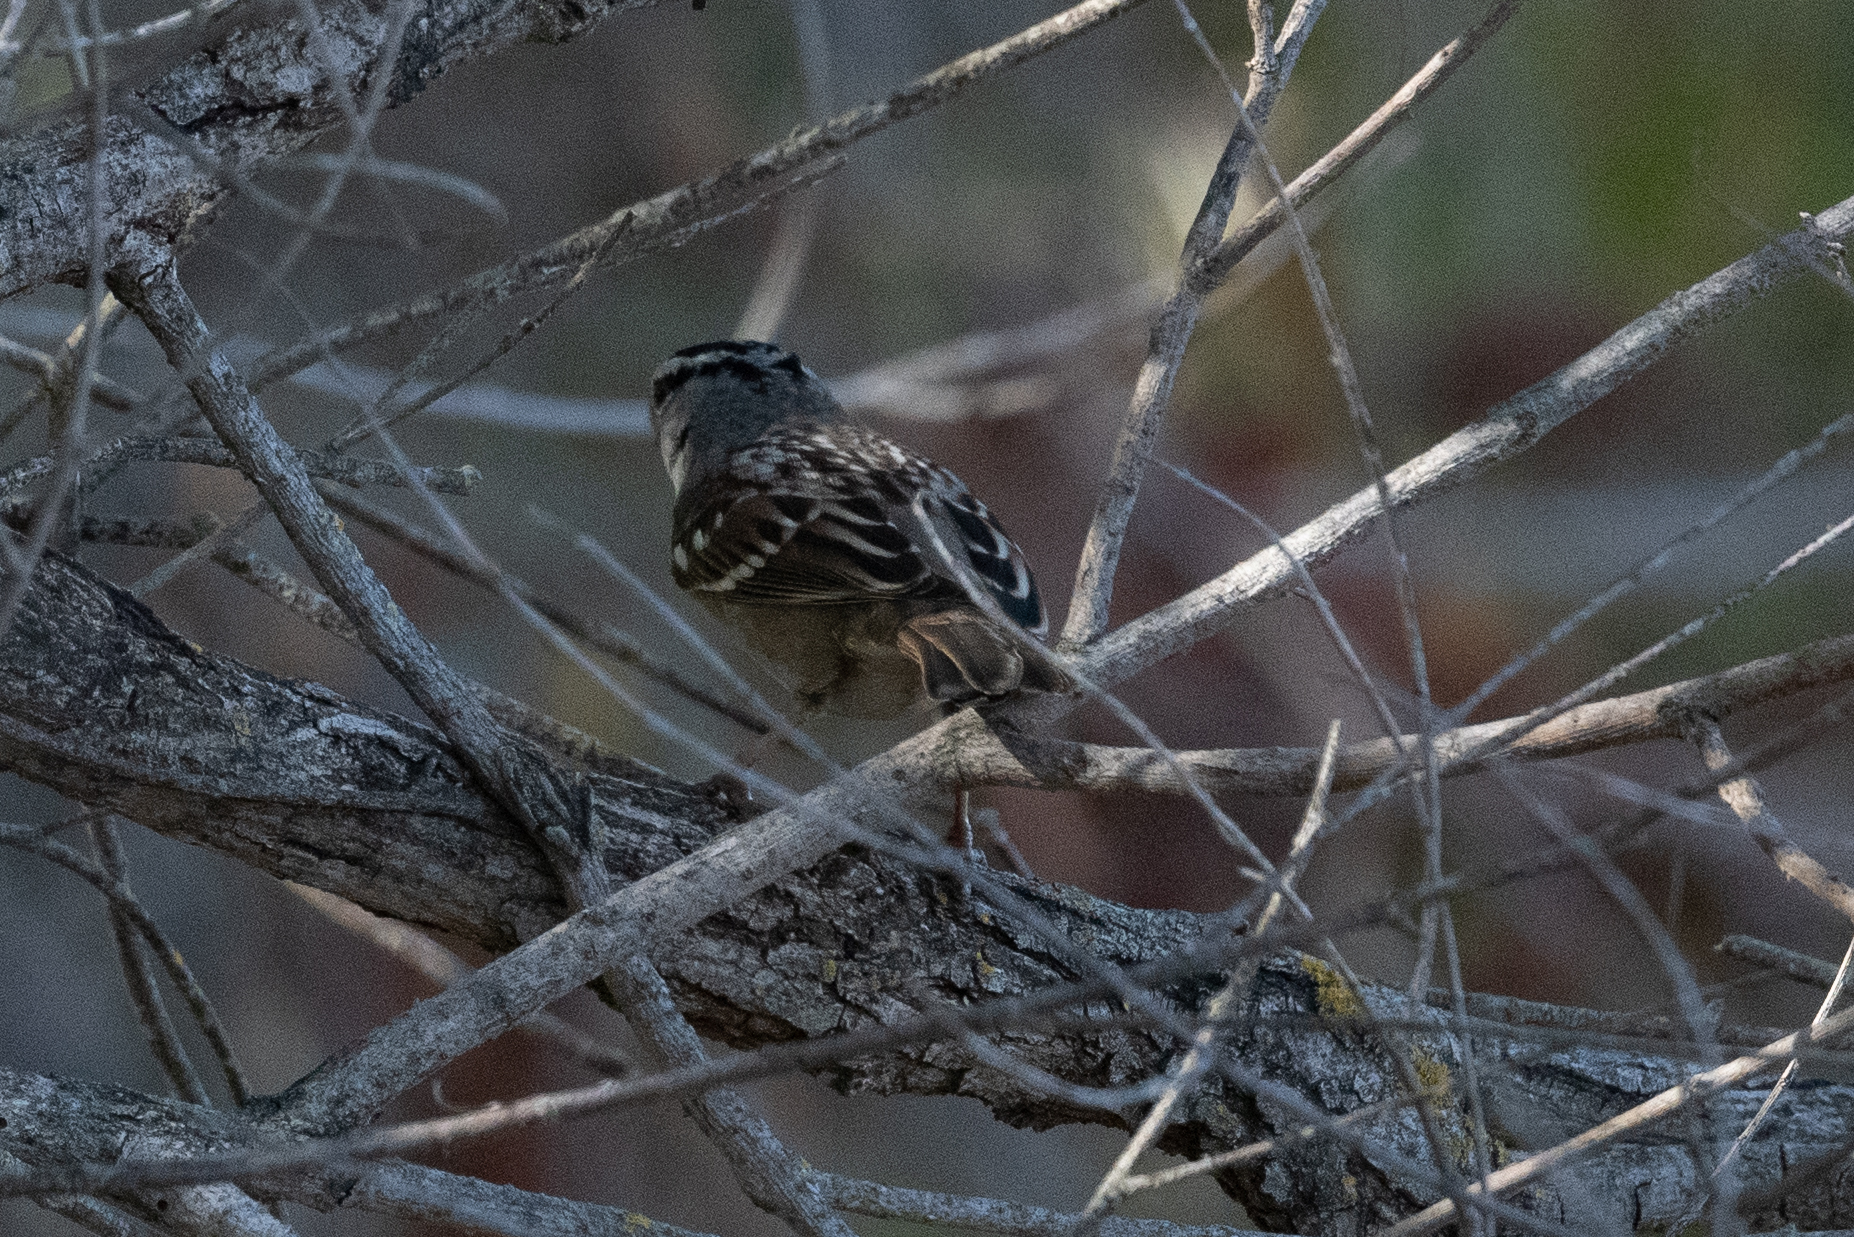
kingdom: Animalia
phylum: Chordata
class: Aves
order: Passeriformes
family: Passerellidae
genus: Zonotrichia
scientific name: Zonotrichia leucophrys
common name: White-crowned sparrow
